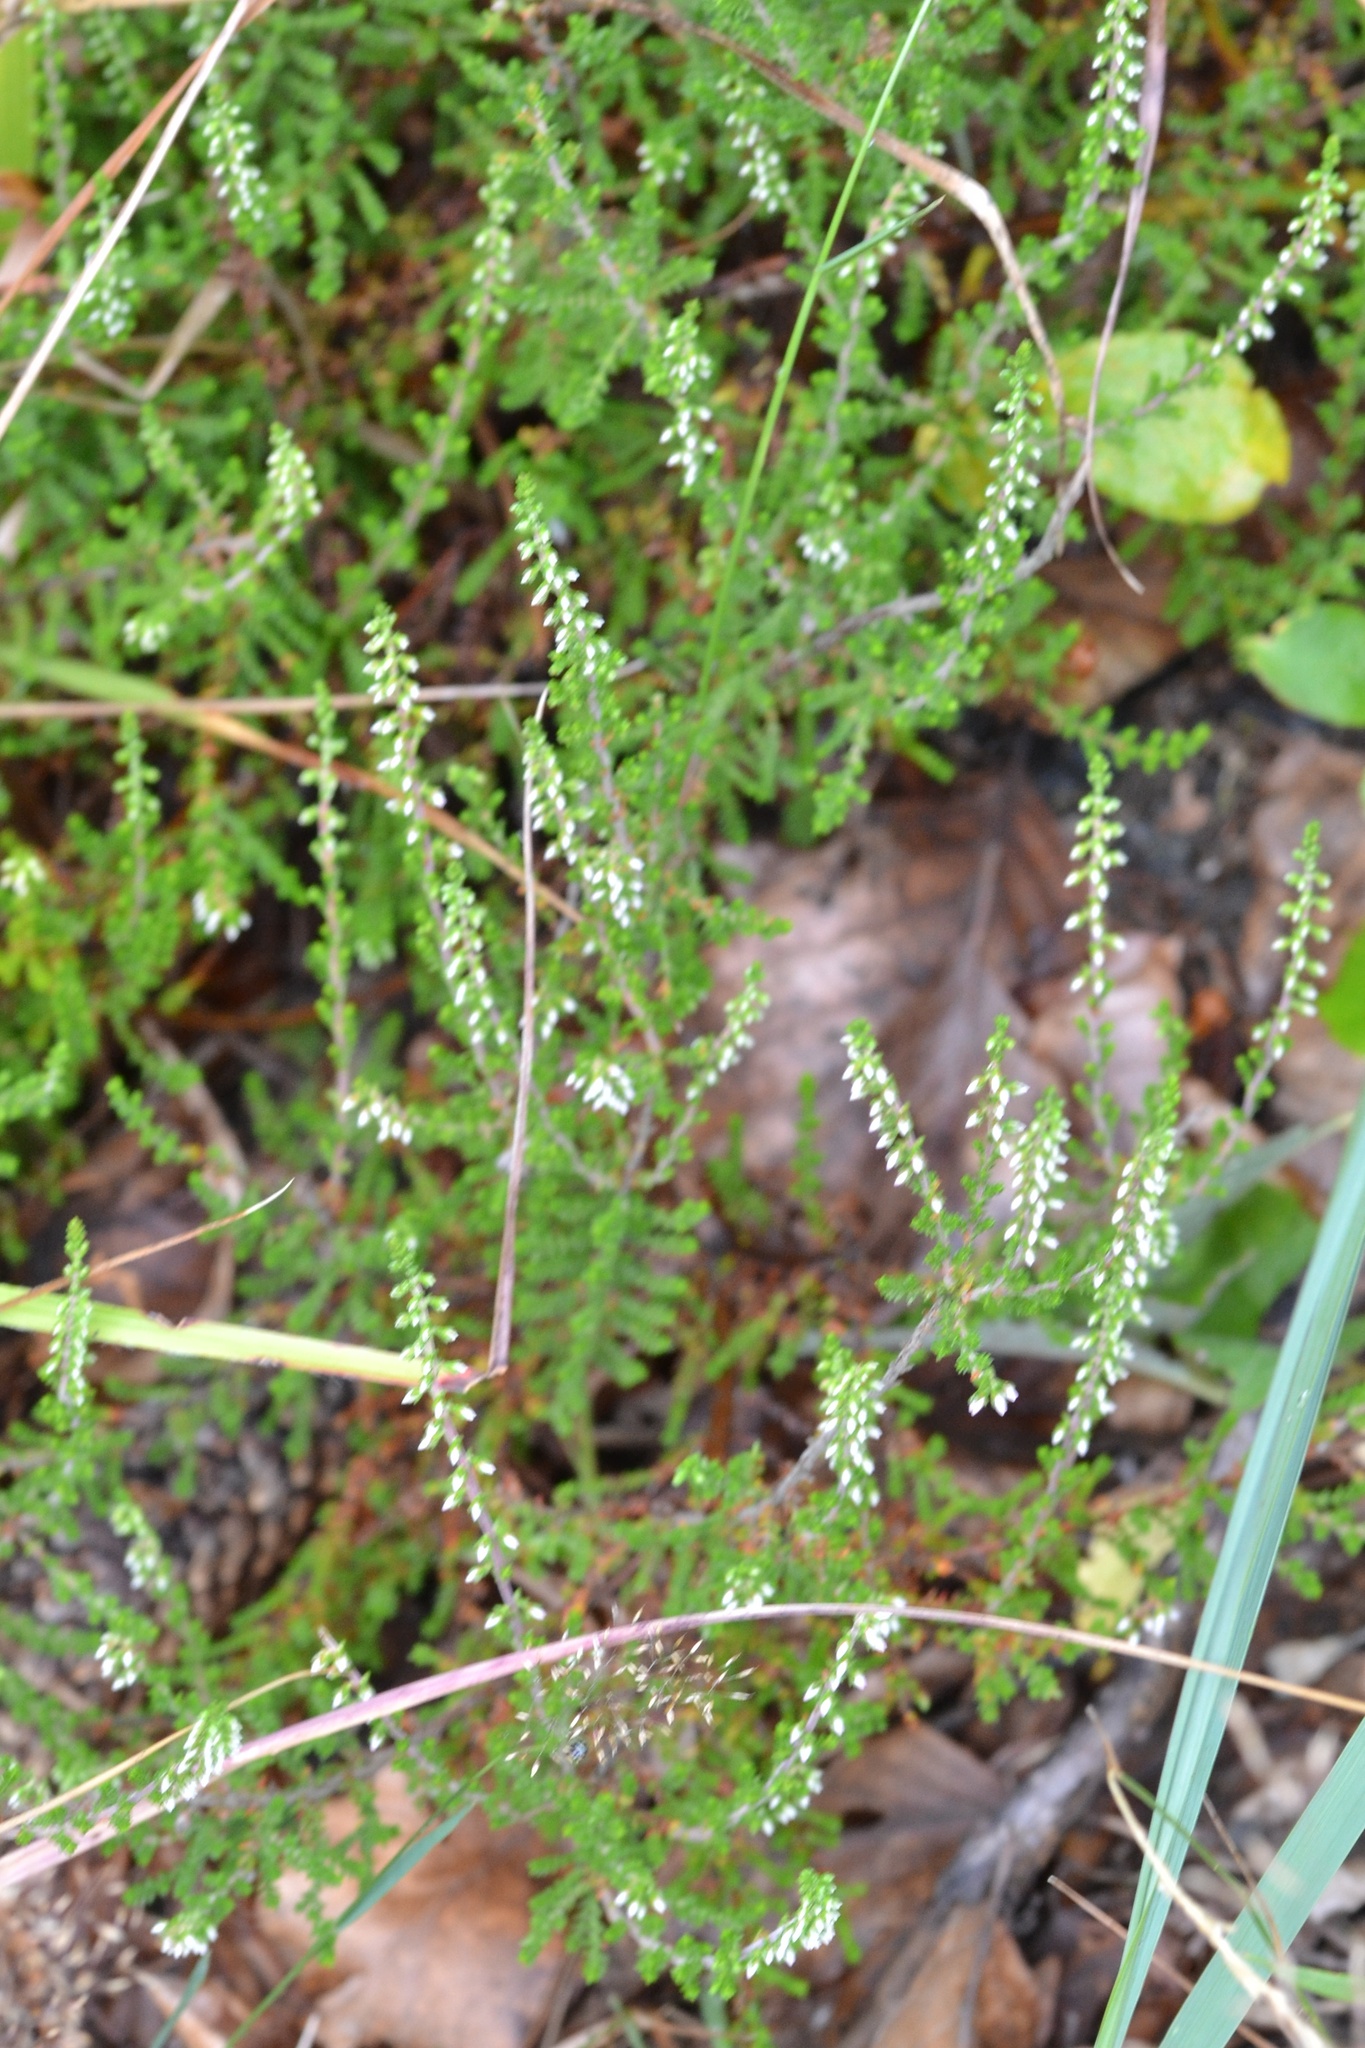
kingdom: Plantae
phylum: Tracheophyta
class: Magnoliopsida
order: Ericales
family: Ericaceae
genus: Calluna
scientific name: Calluna vulgaris
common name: Heather
